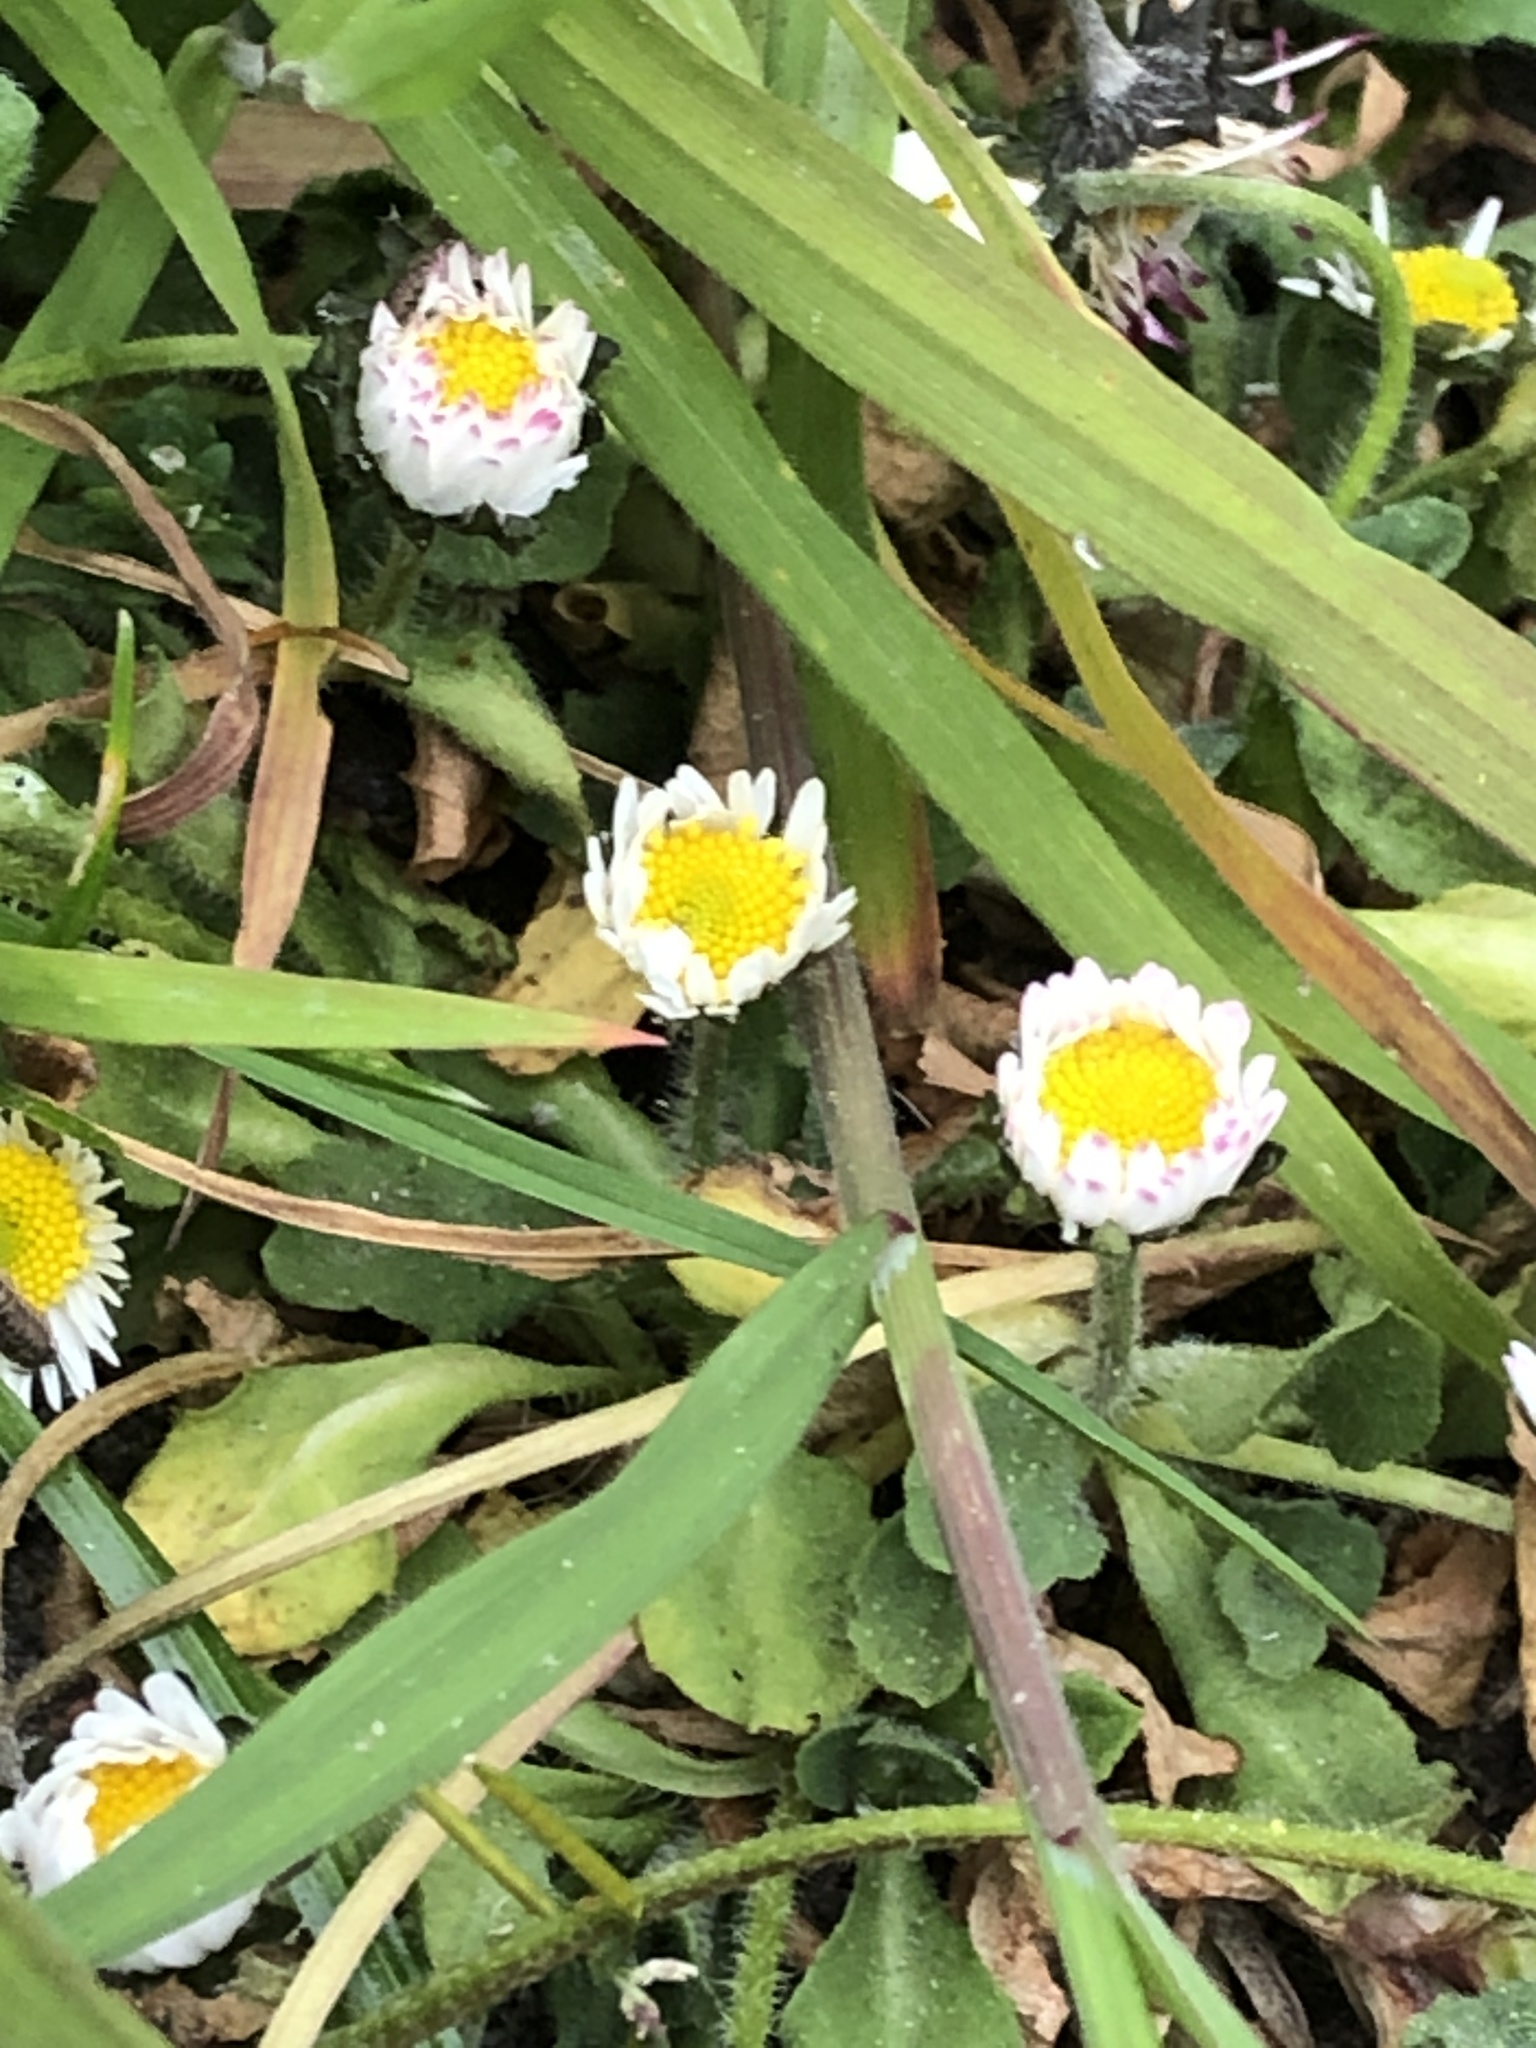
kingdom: Plantae
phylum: Tracheophyta
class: Magnoliopsida
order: Asterales
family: Asteraceae
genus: Bellis
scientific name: Bellis perennis
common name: Lawndaisy
